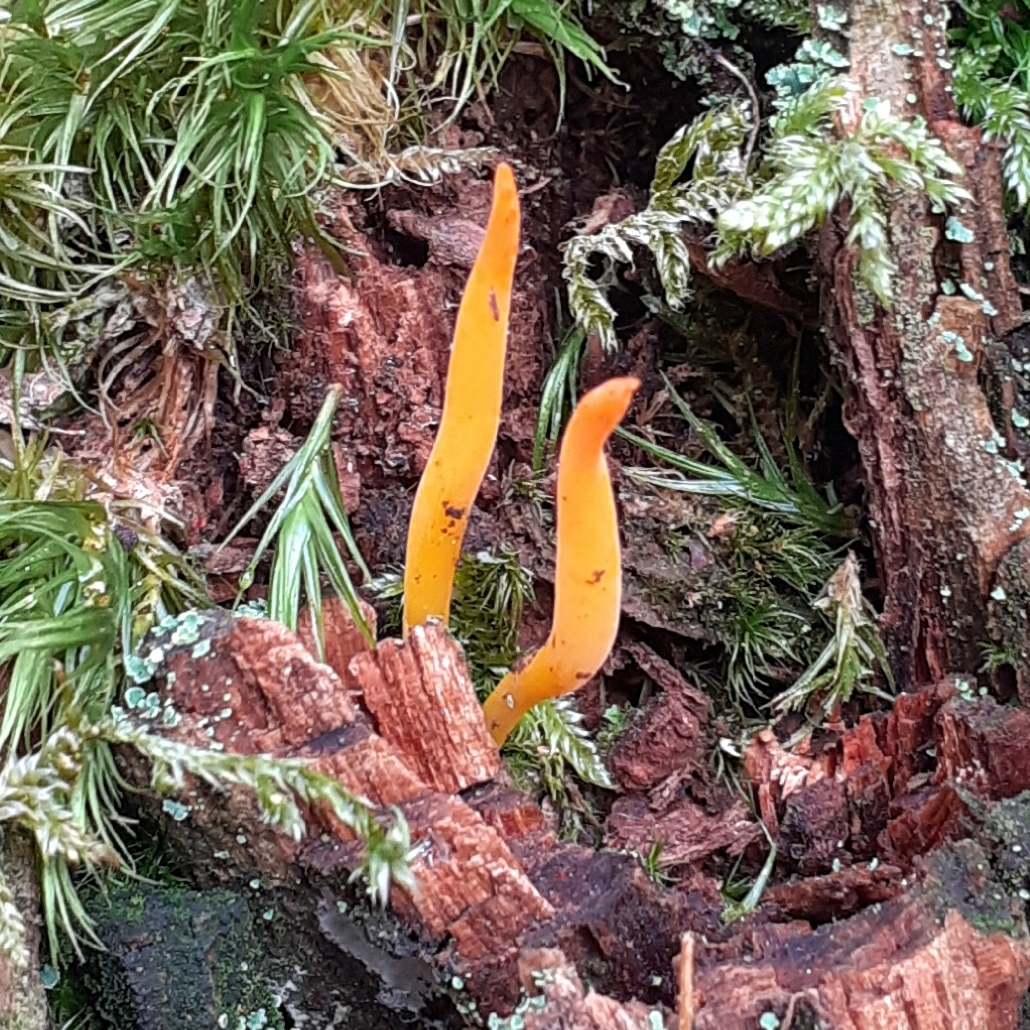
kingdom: Fungi
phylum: Basidiomycota
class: Dacrymycetes
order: Dacrymycetales
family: Dacrymycetaceae
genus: Calocera
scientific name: Calocera viscosa
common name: Yellow stagshorn
